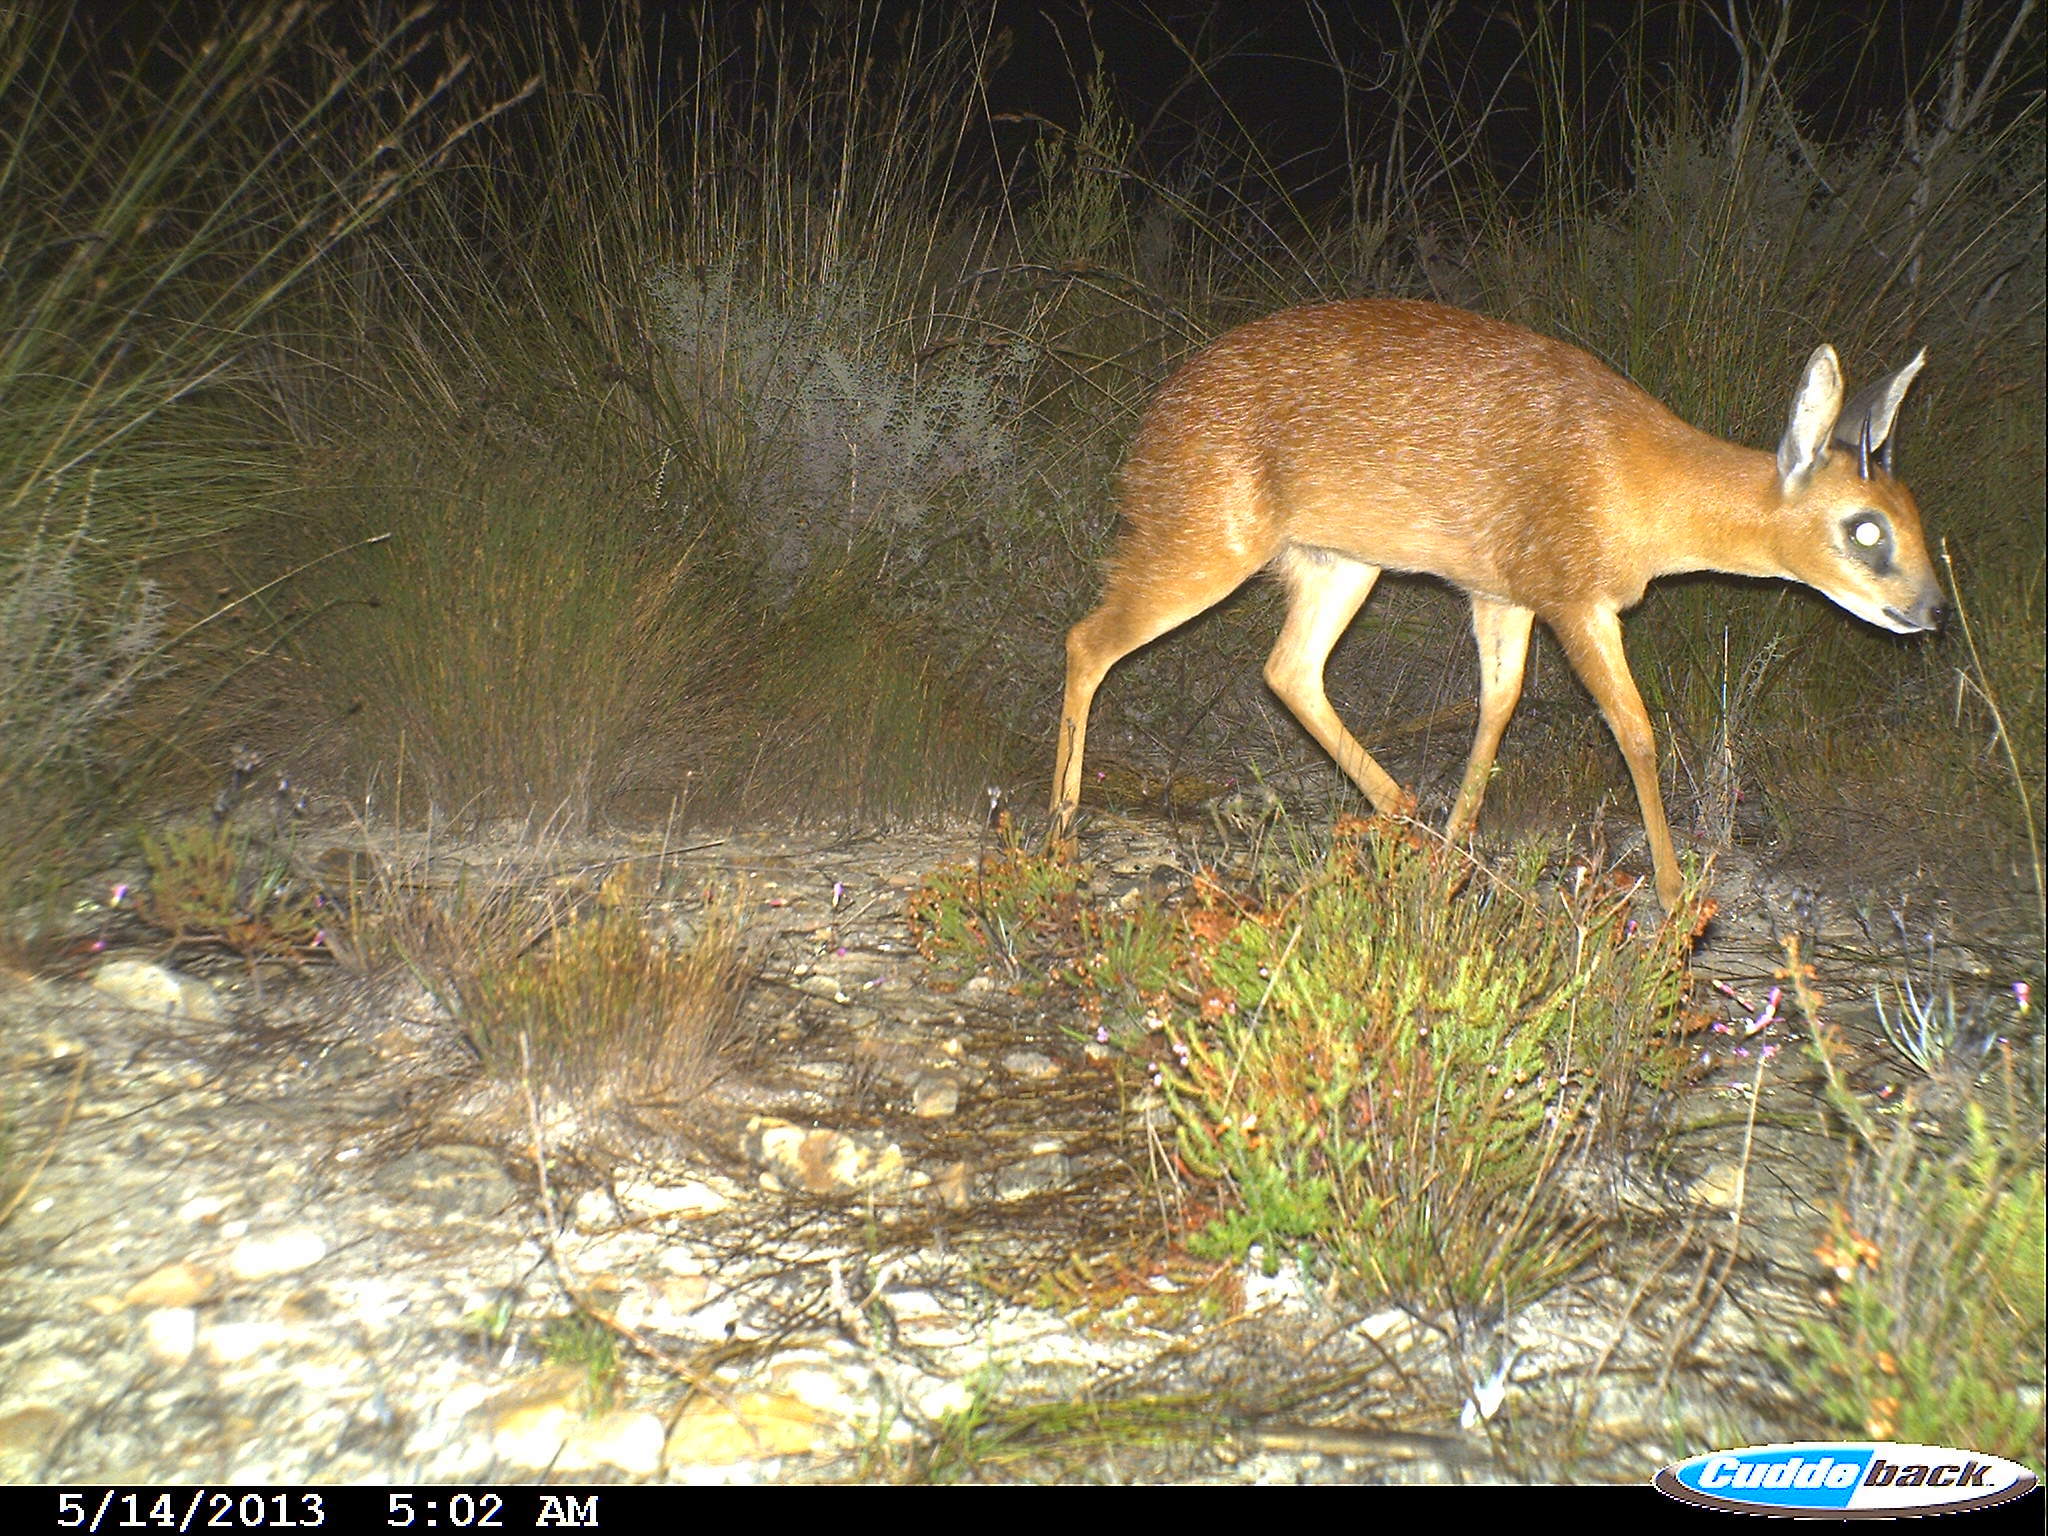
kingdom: Animalia
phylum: Chordata
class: Mammalia
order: Artiodactyla
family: Bovidae
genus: Raphicerus
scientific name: Raphicerus melanotis
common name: Cape grysbok
